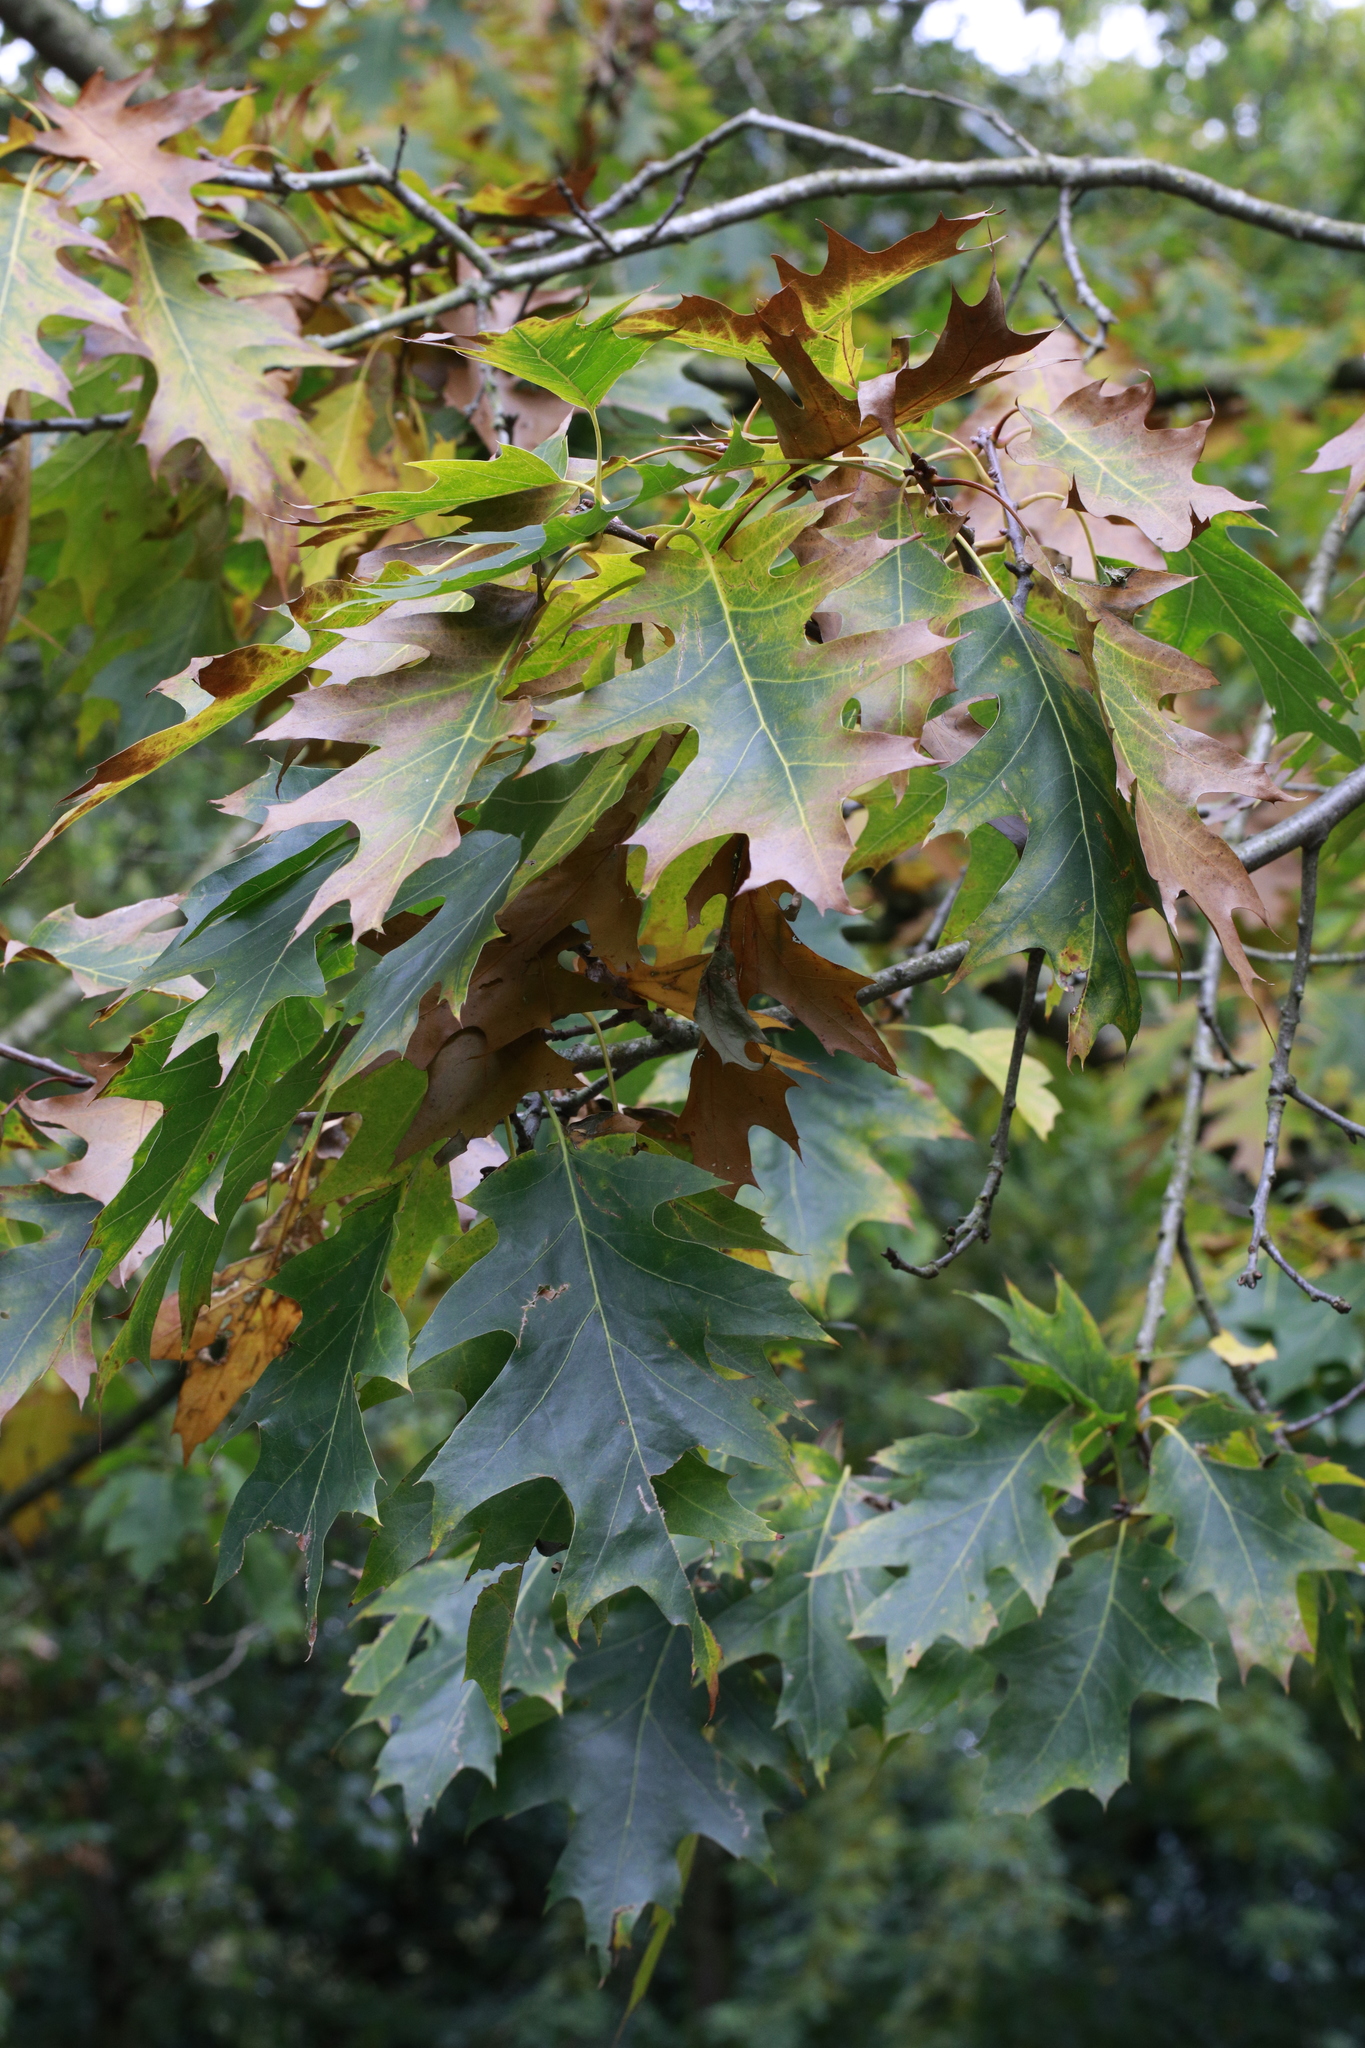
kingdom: Plantae
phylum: Tracheophyta
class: Magnoliopsida
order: Fagales
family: Fagaceae
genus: Quercus
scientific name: Quercus rubra
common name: Red oak
